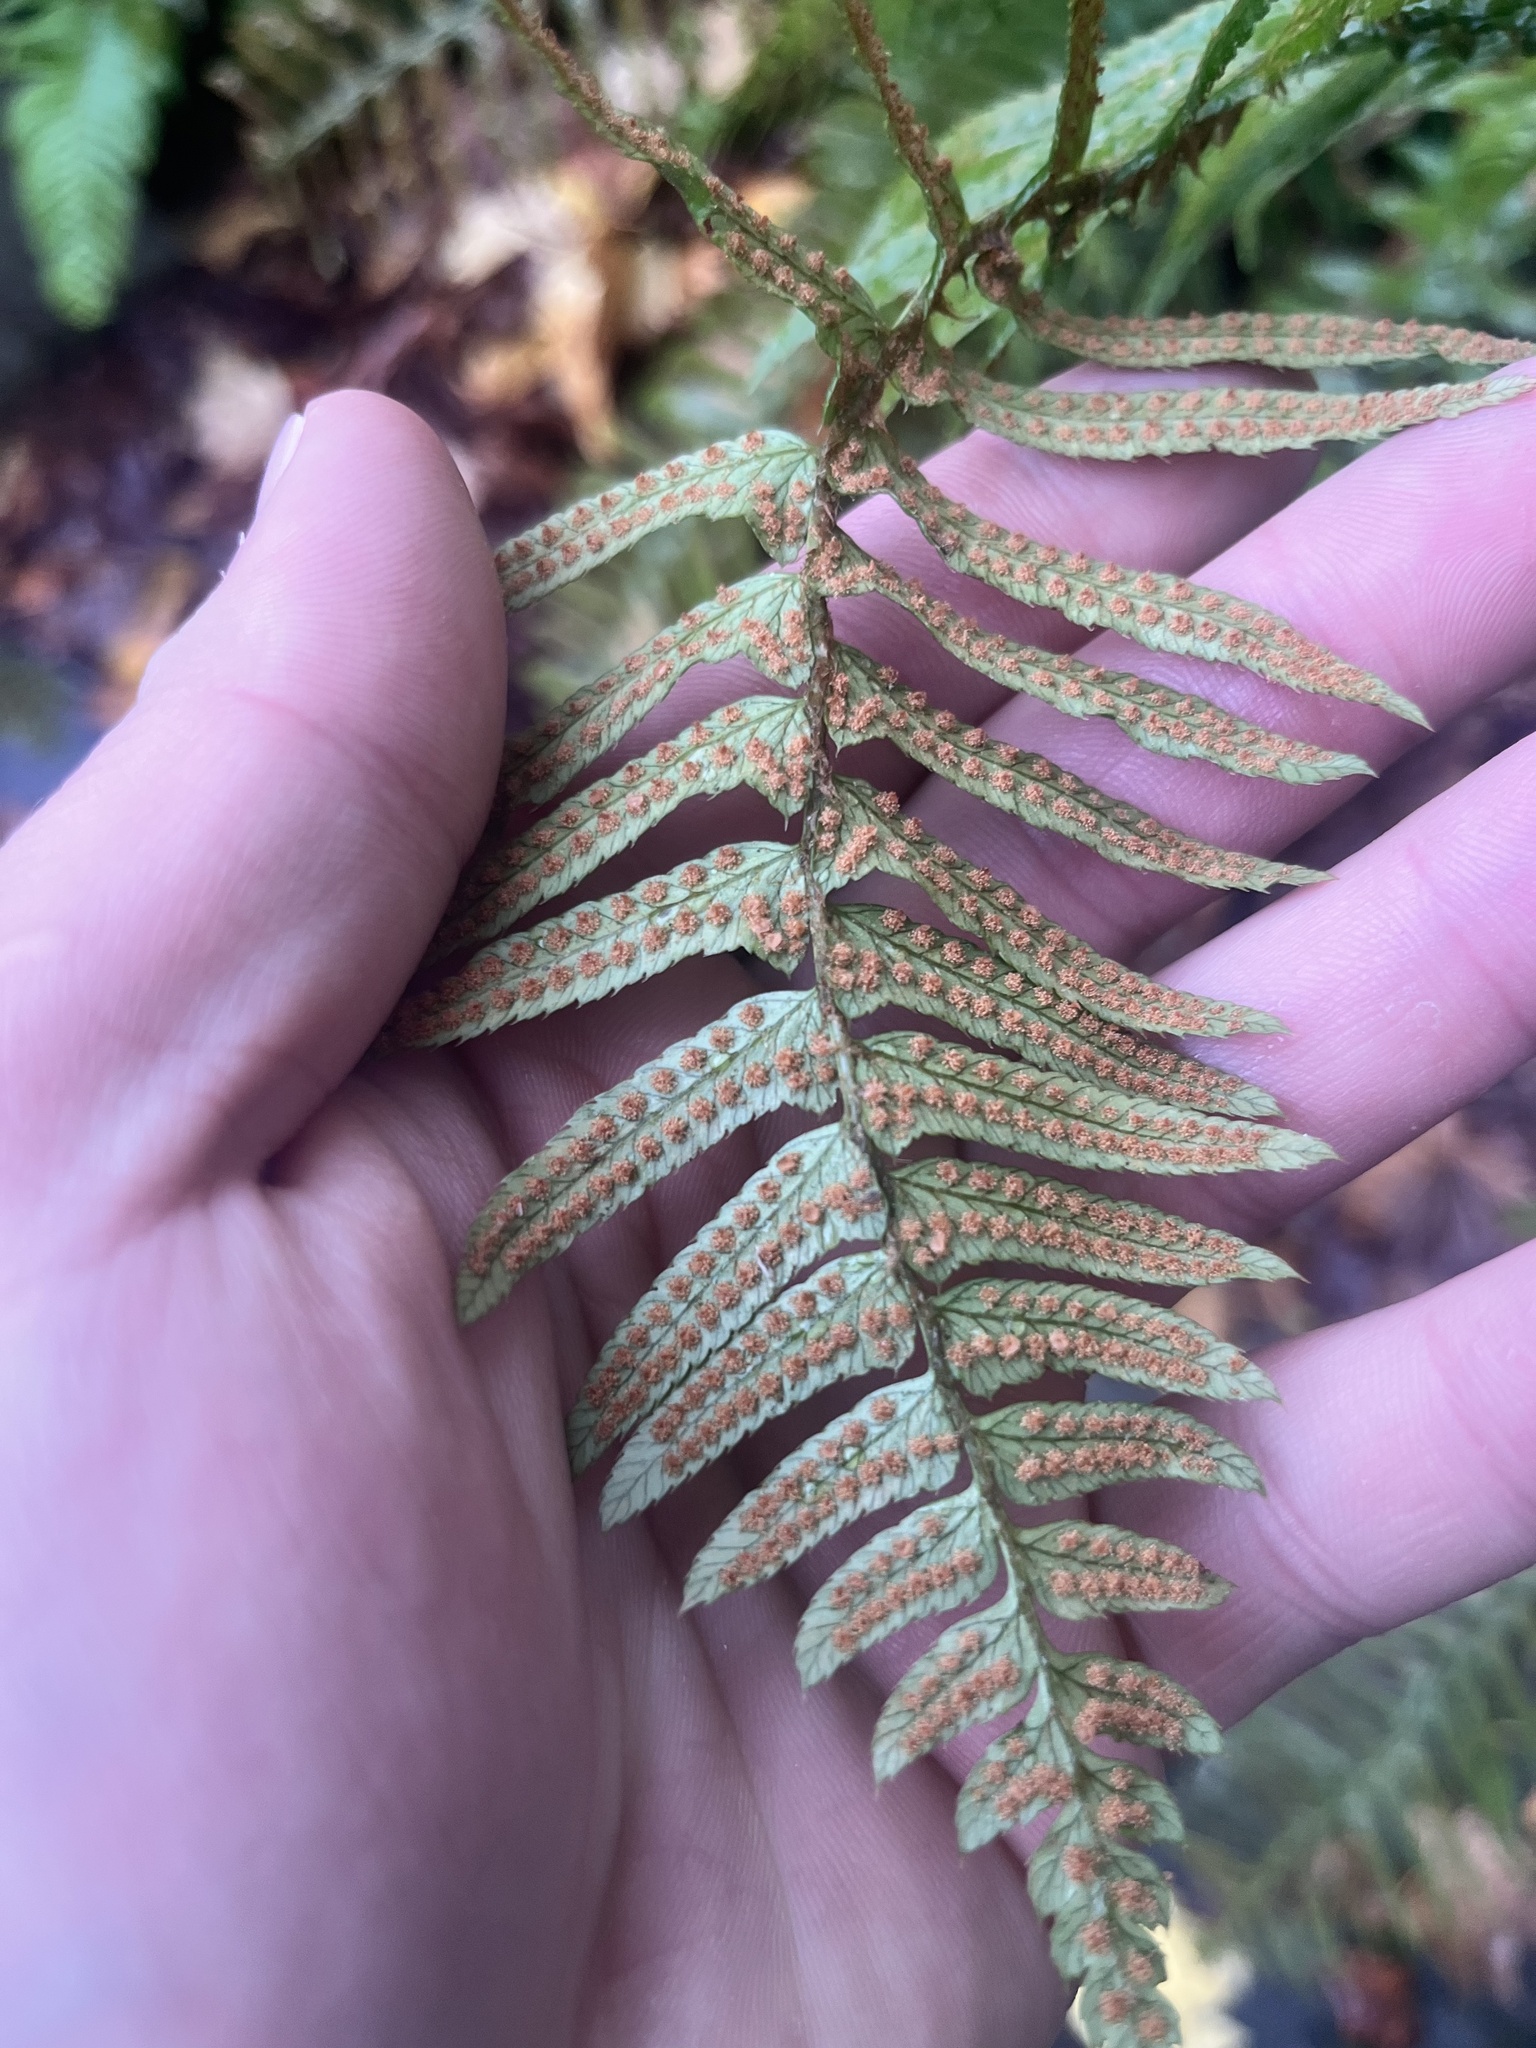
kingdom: Plantae
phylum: Tracheophyta
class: Polypodiopsida
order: Polypodiales
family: Dryopteridaceae
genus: Polystichum
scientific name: Polystichum munitum
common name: Western sword-fern
